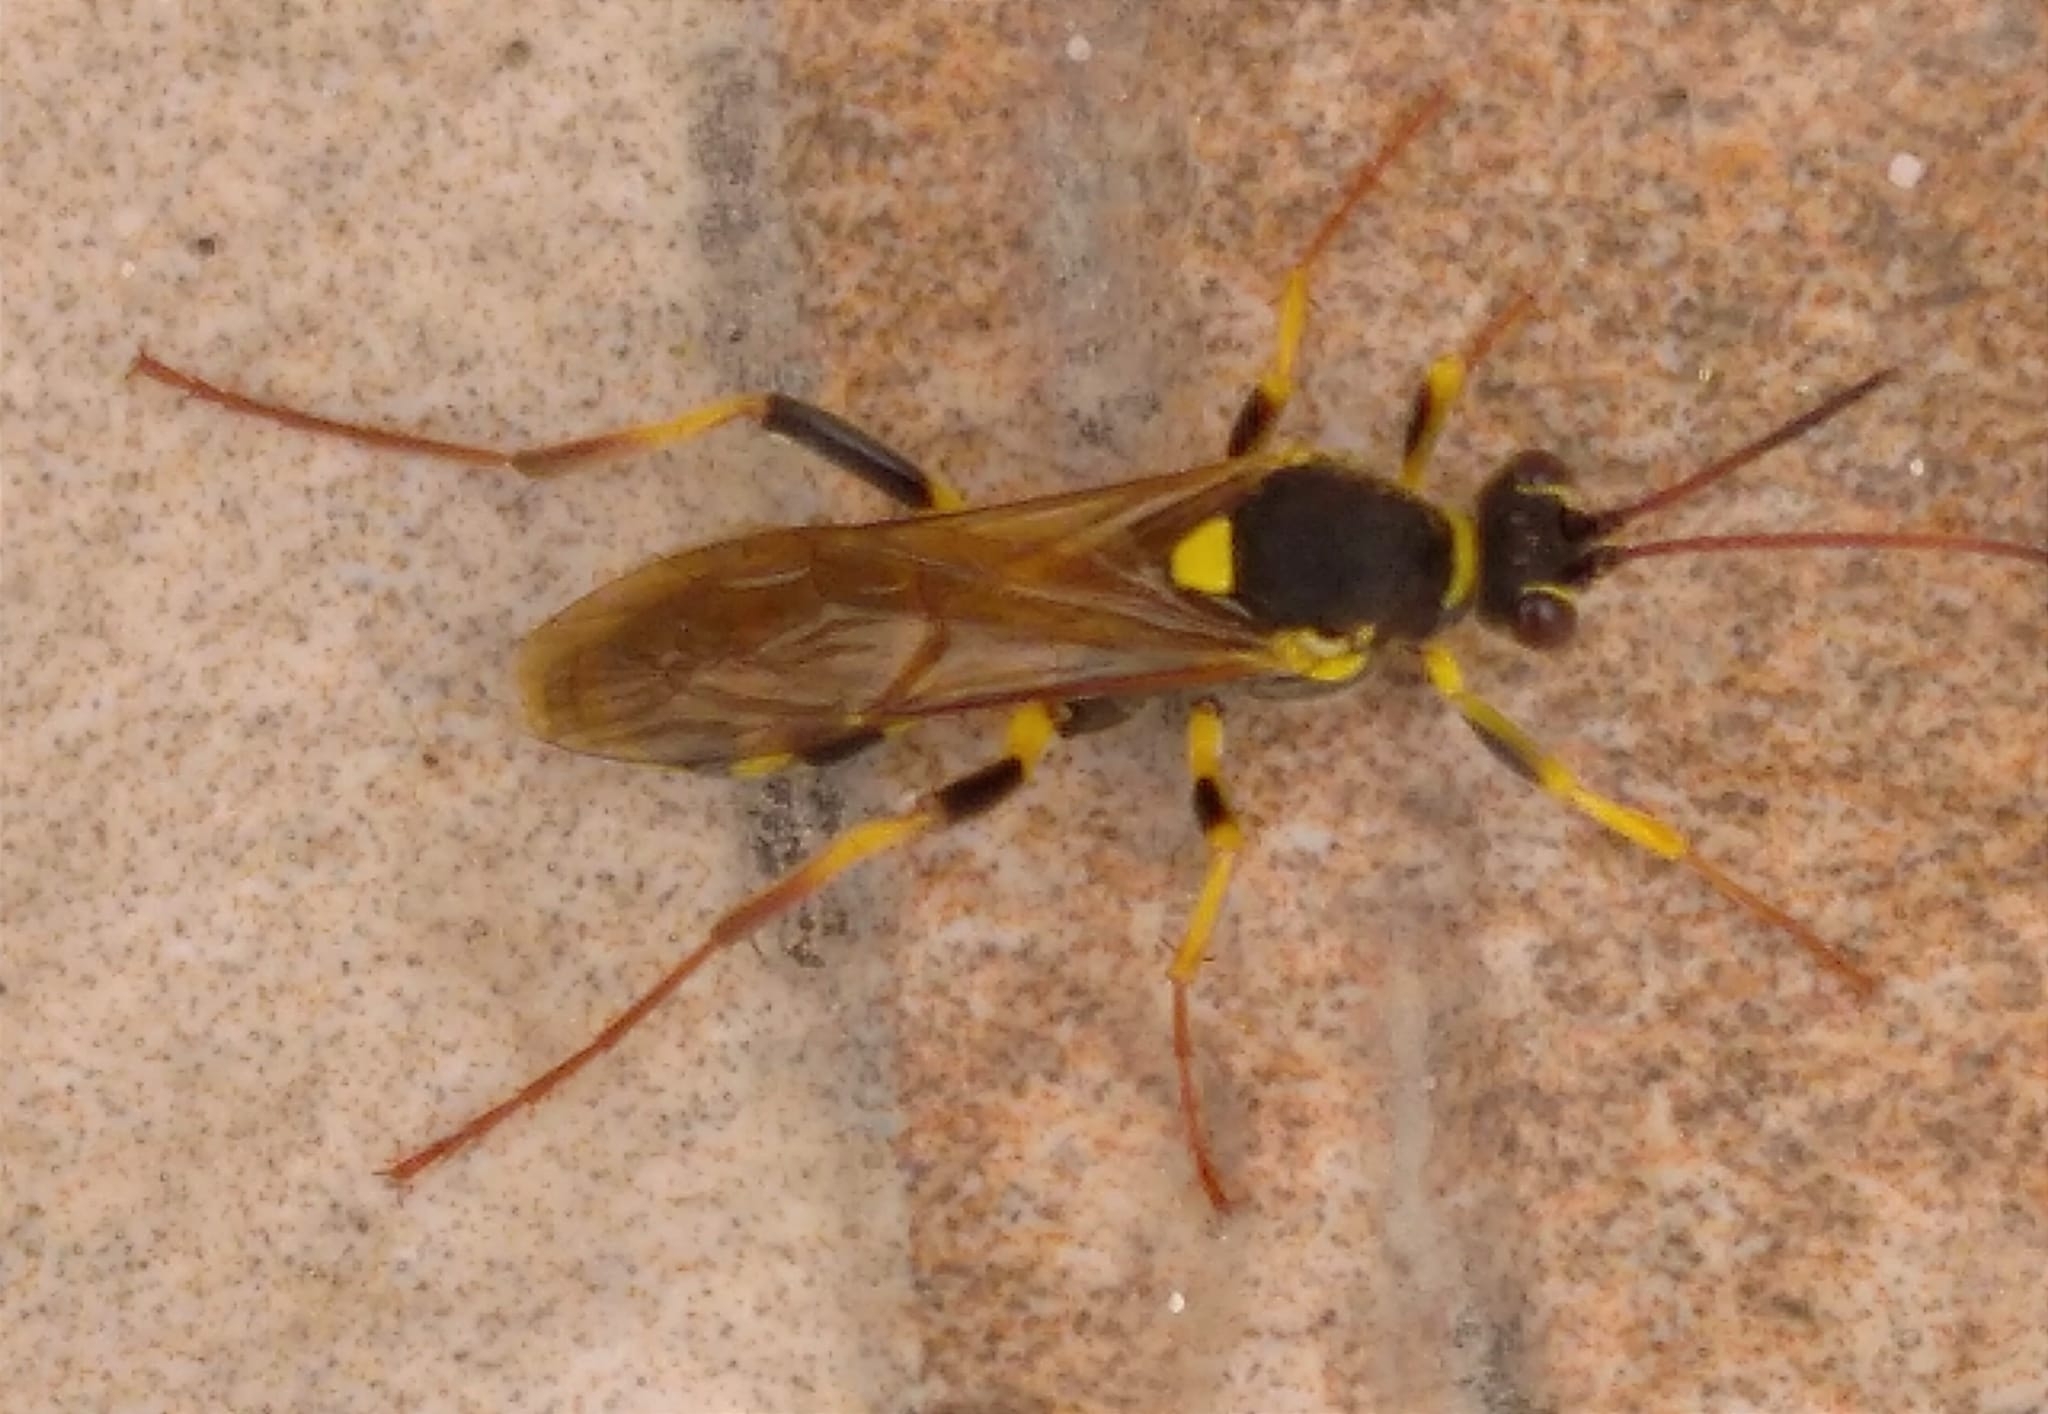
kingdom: Animalia
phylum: Arthropoda
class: Insecta
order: Hymenoptera
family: Ichneumonidae
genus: Amblyteles
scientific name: Amblyteles armatorius
